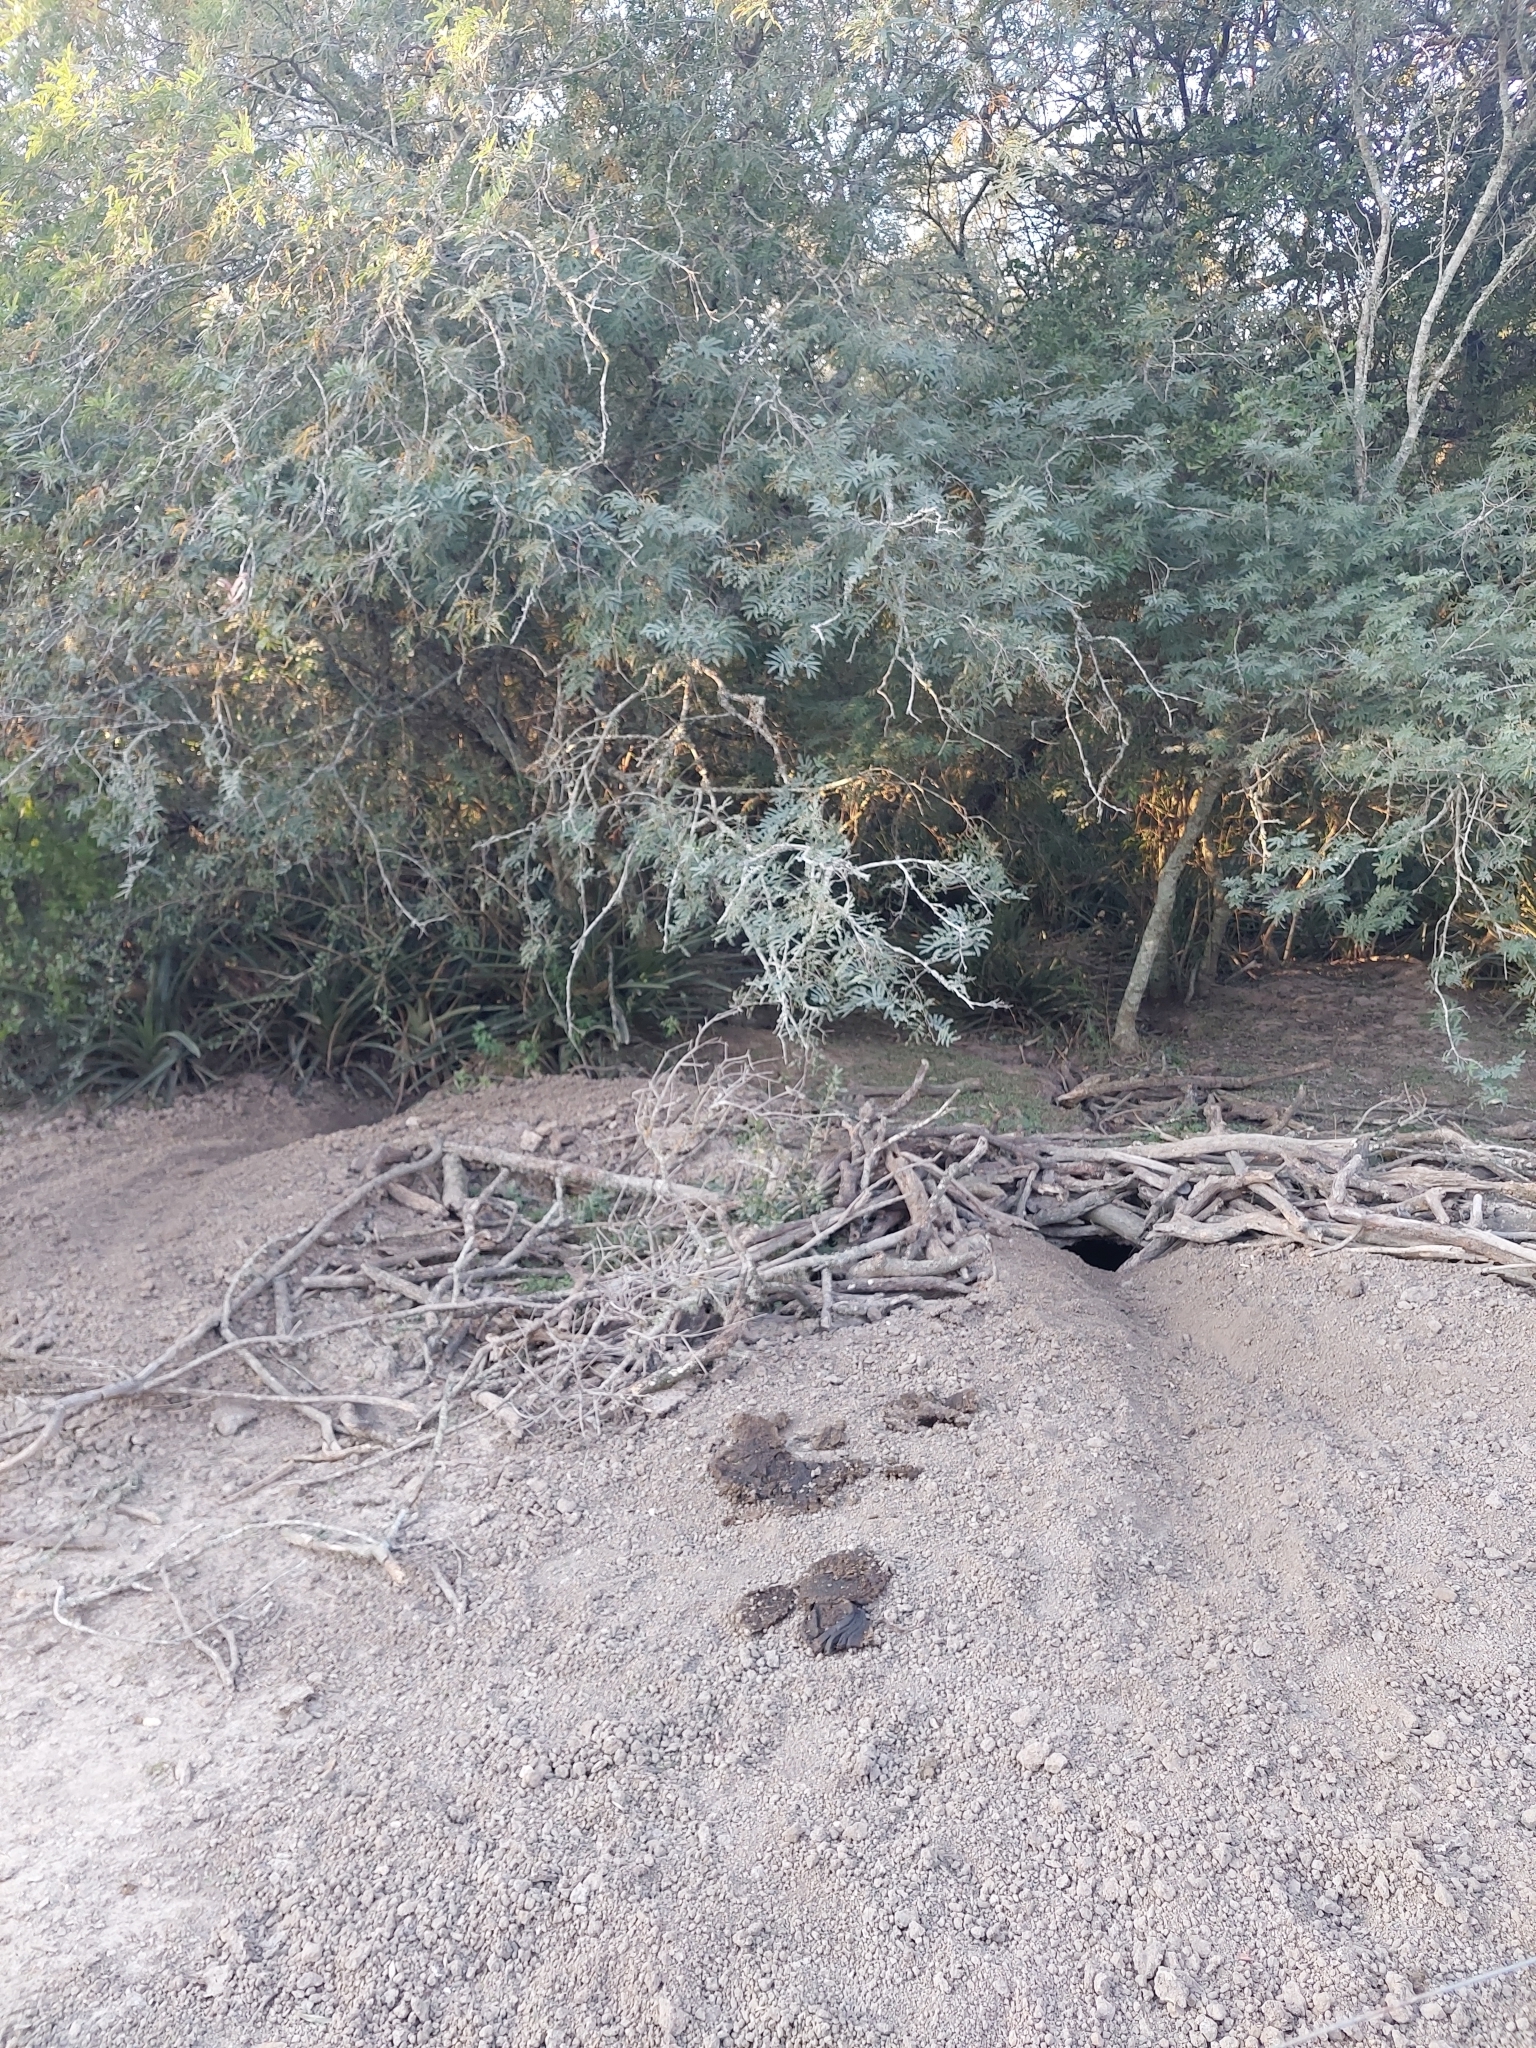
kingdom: Animalia
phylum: Chordata
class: Mammalia
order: Rodentia
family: Chinchillidae
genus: Lagostomus
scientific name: Lagostomus maximus
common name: Plains viscacha
